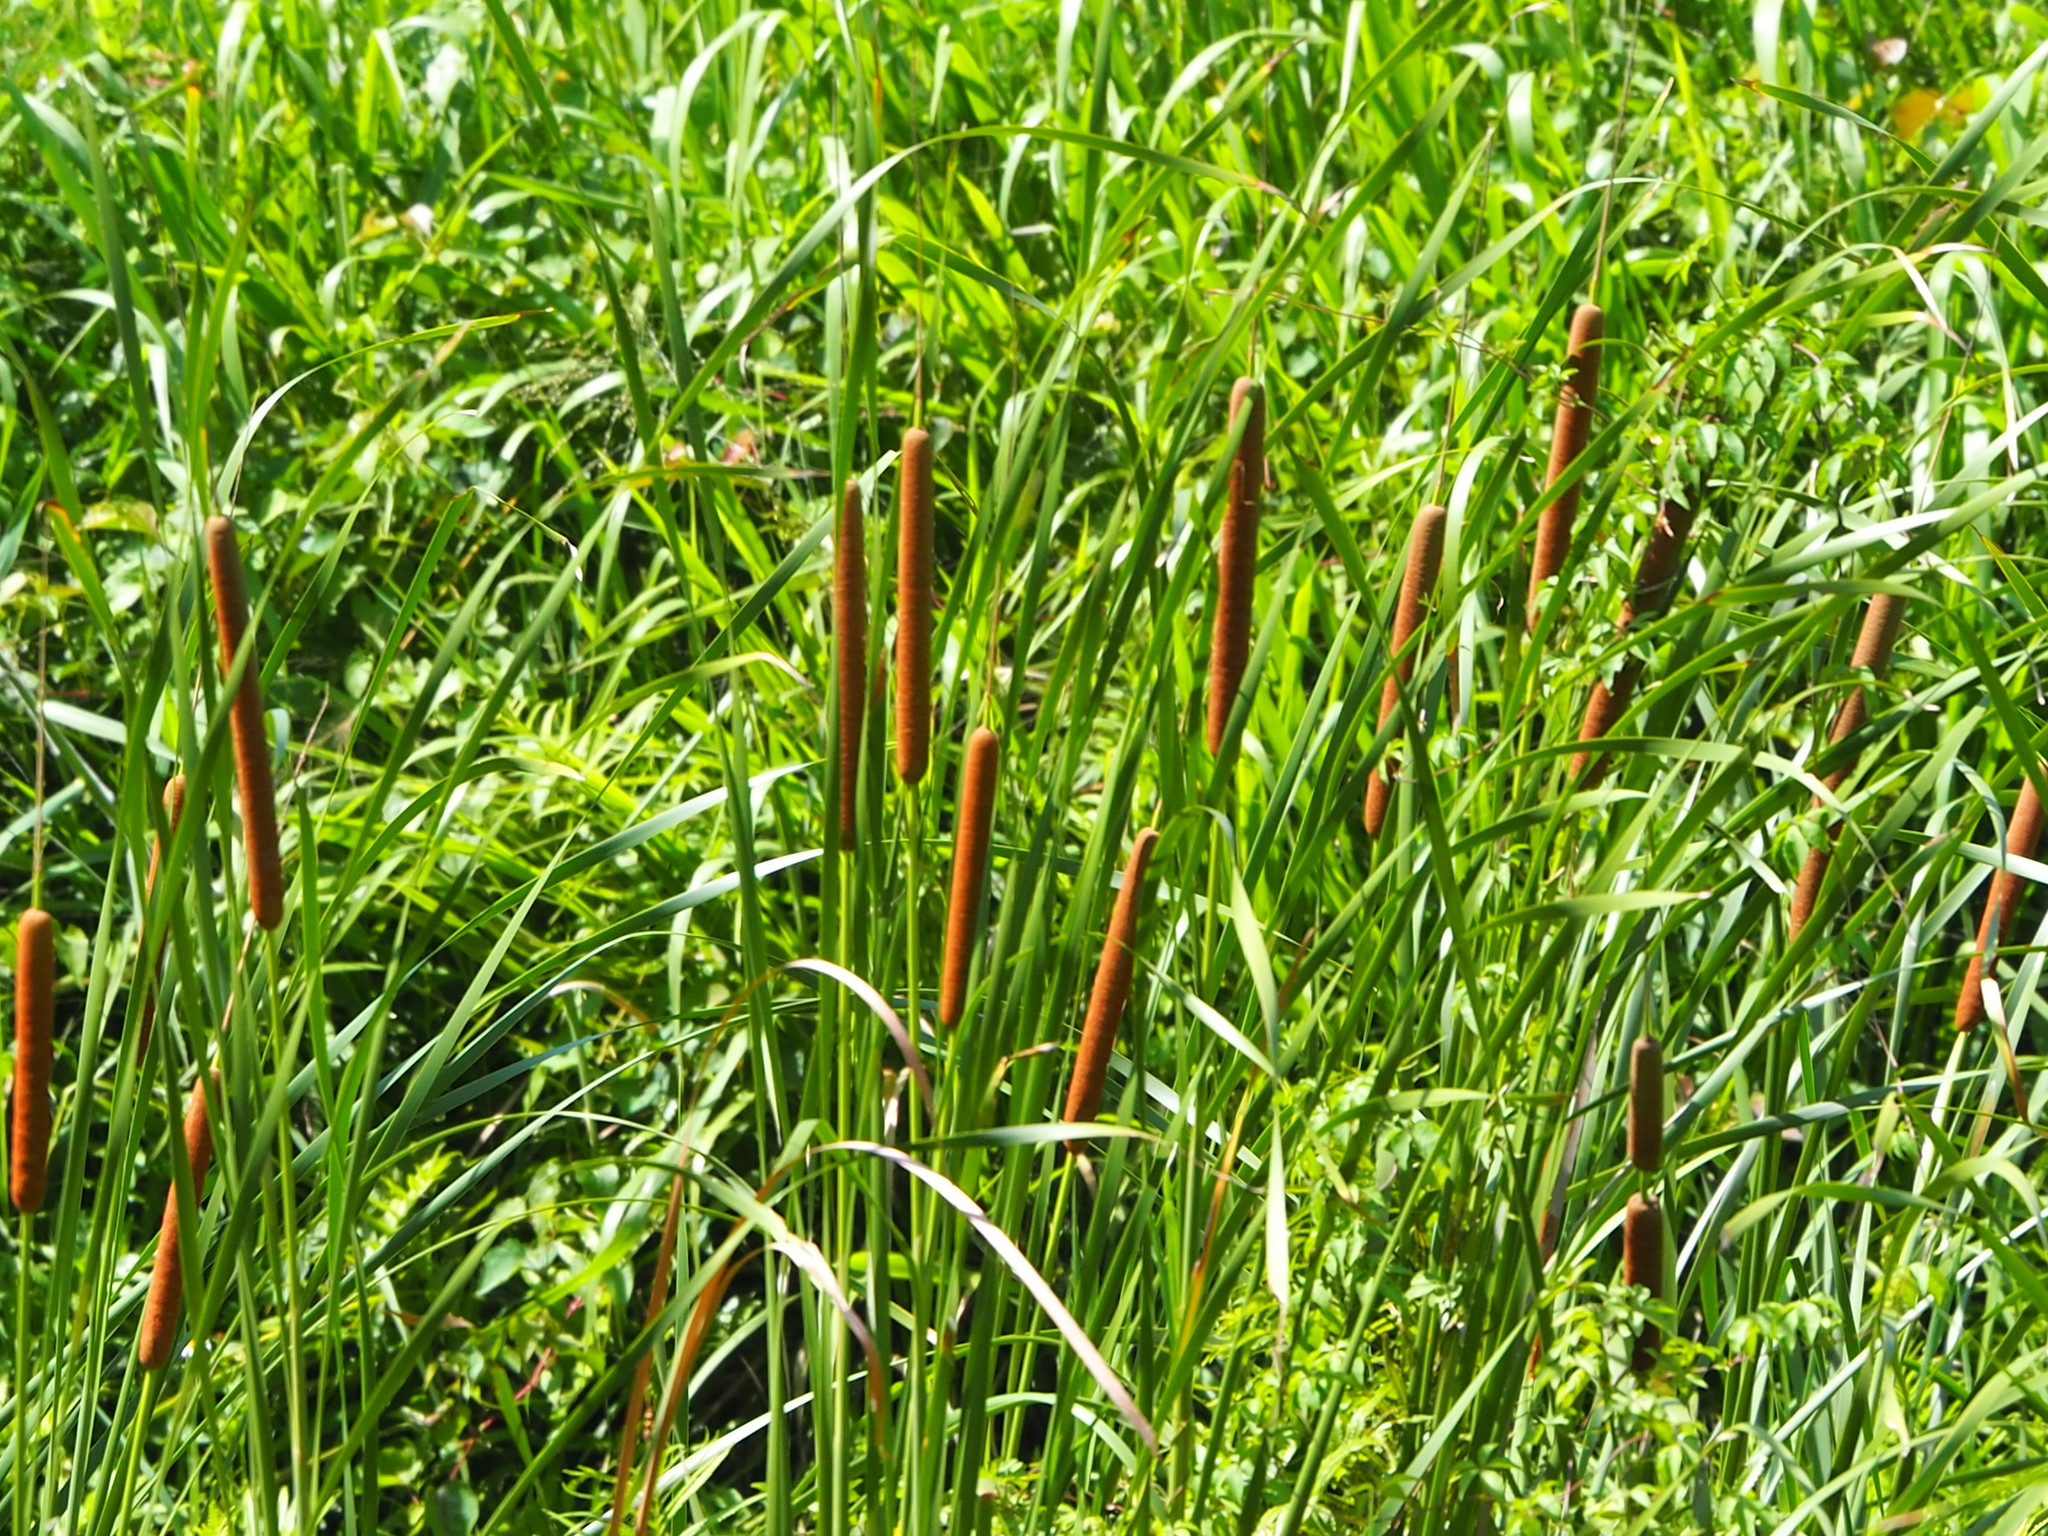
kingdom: Plantae
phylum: Tracheophyta
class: Liliopsida
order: Poales
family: Typhaceae
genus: Typha
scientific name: Typha angustifolia
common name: Lesser bulrush
